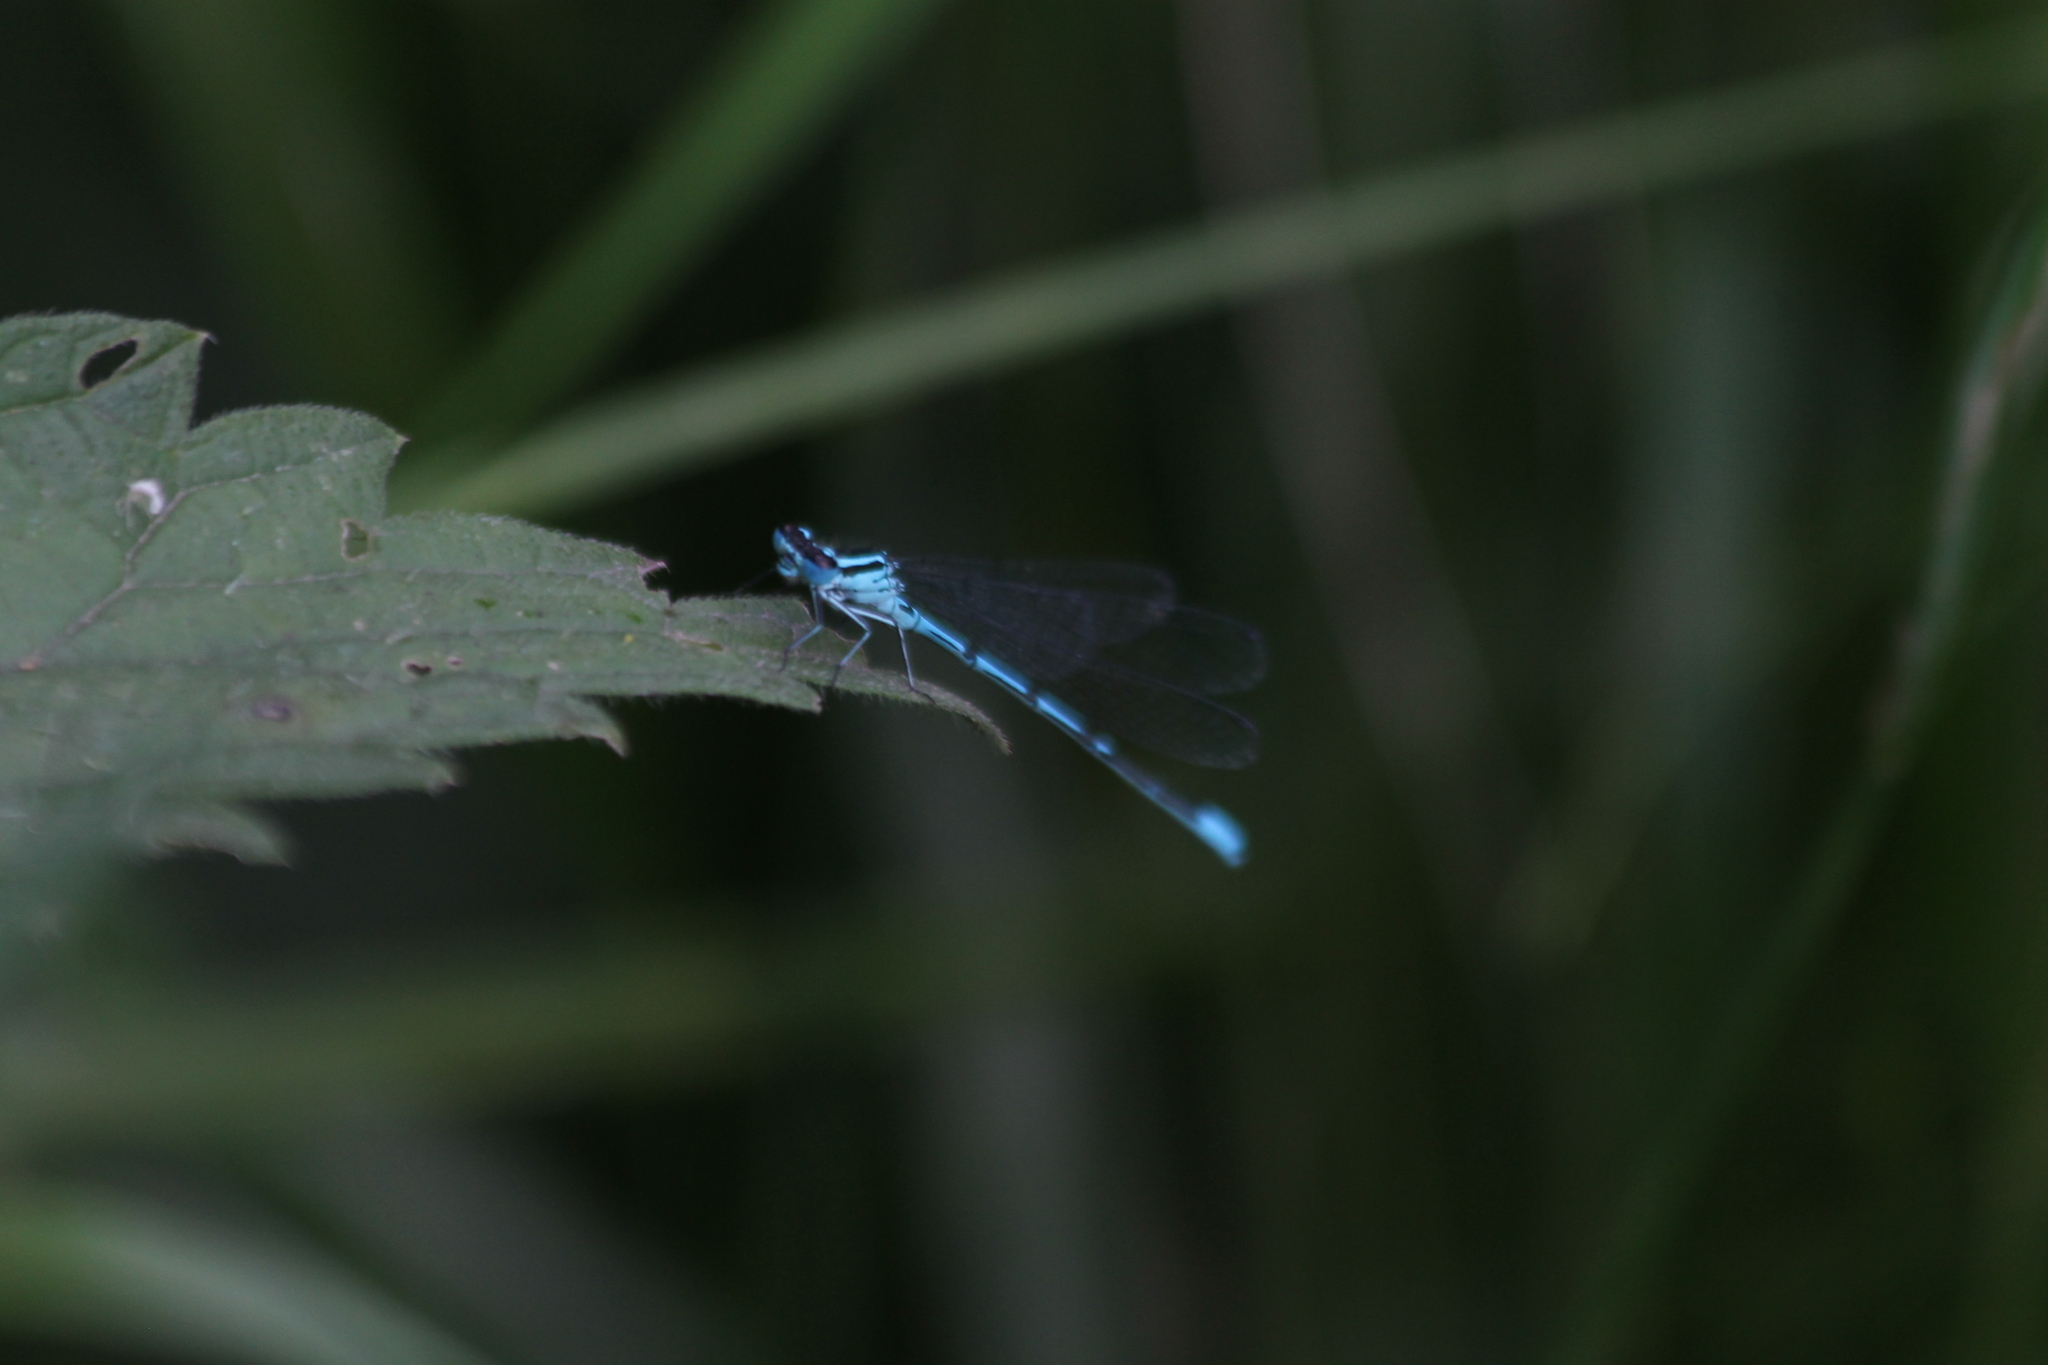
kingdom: Animalia
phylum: Arthropoda
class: Insecta
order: Odonata
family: Coenagrionidae
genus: Coenagrion
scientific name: Coenagrion puella
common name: Azure damselfly
